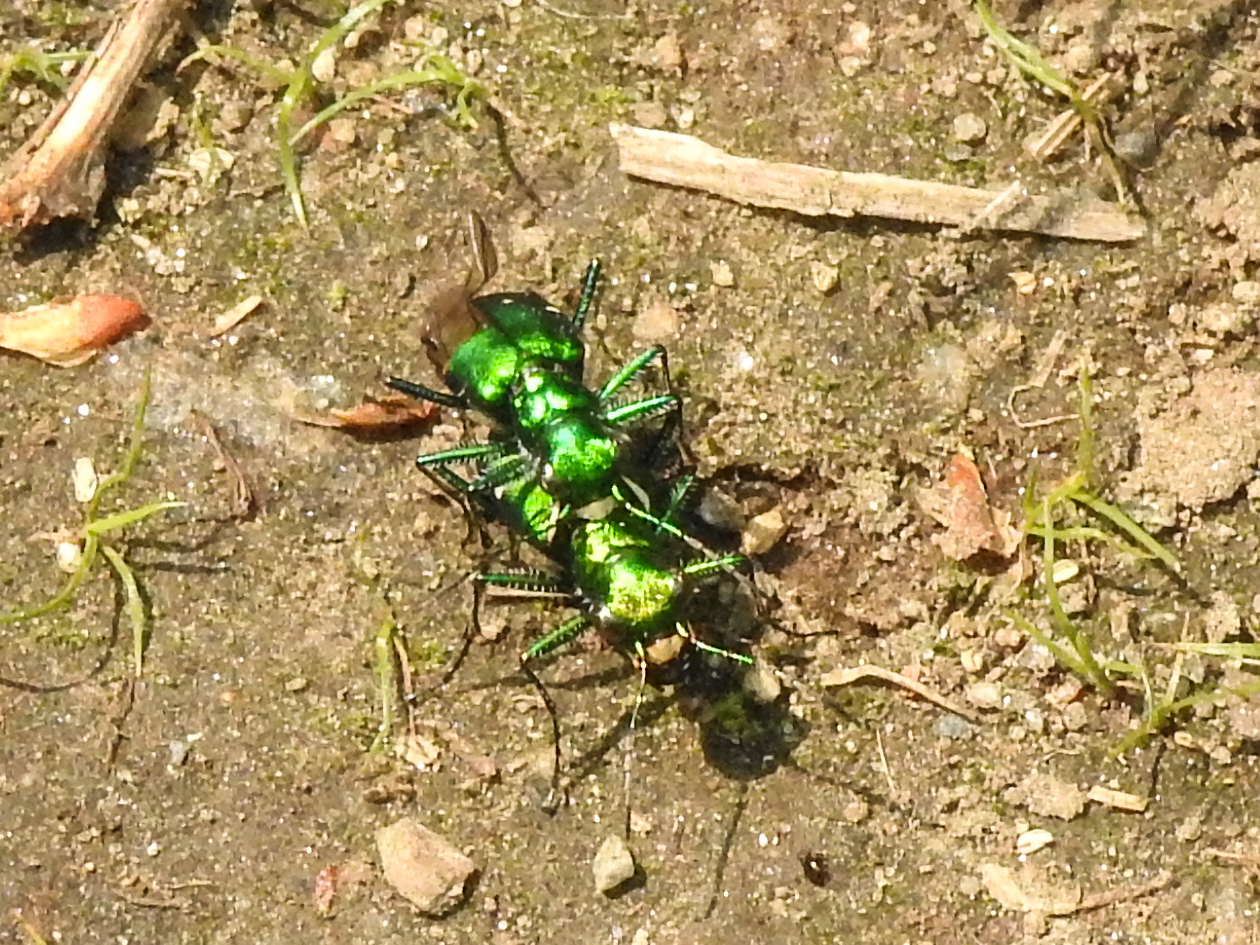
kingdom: Animalia
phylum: Arthropoda
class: Insecta
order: Coleoptera
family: Carabidae
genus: Cicindela
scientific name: Cicindela sexguttata
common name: Six-spotted tiger beetle
